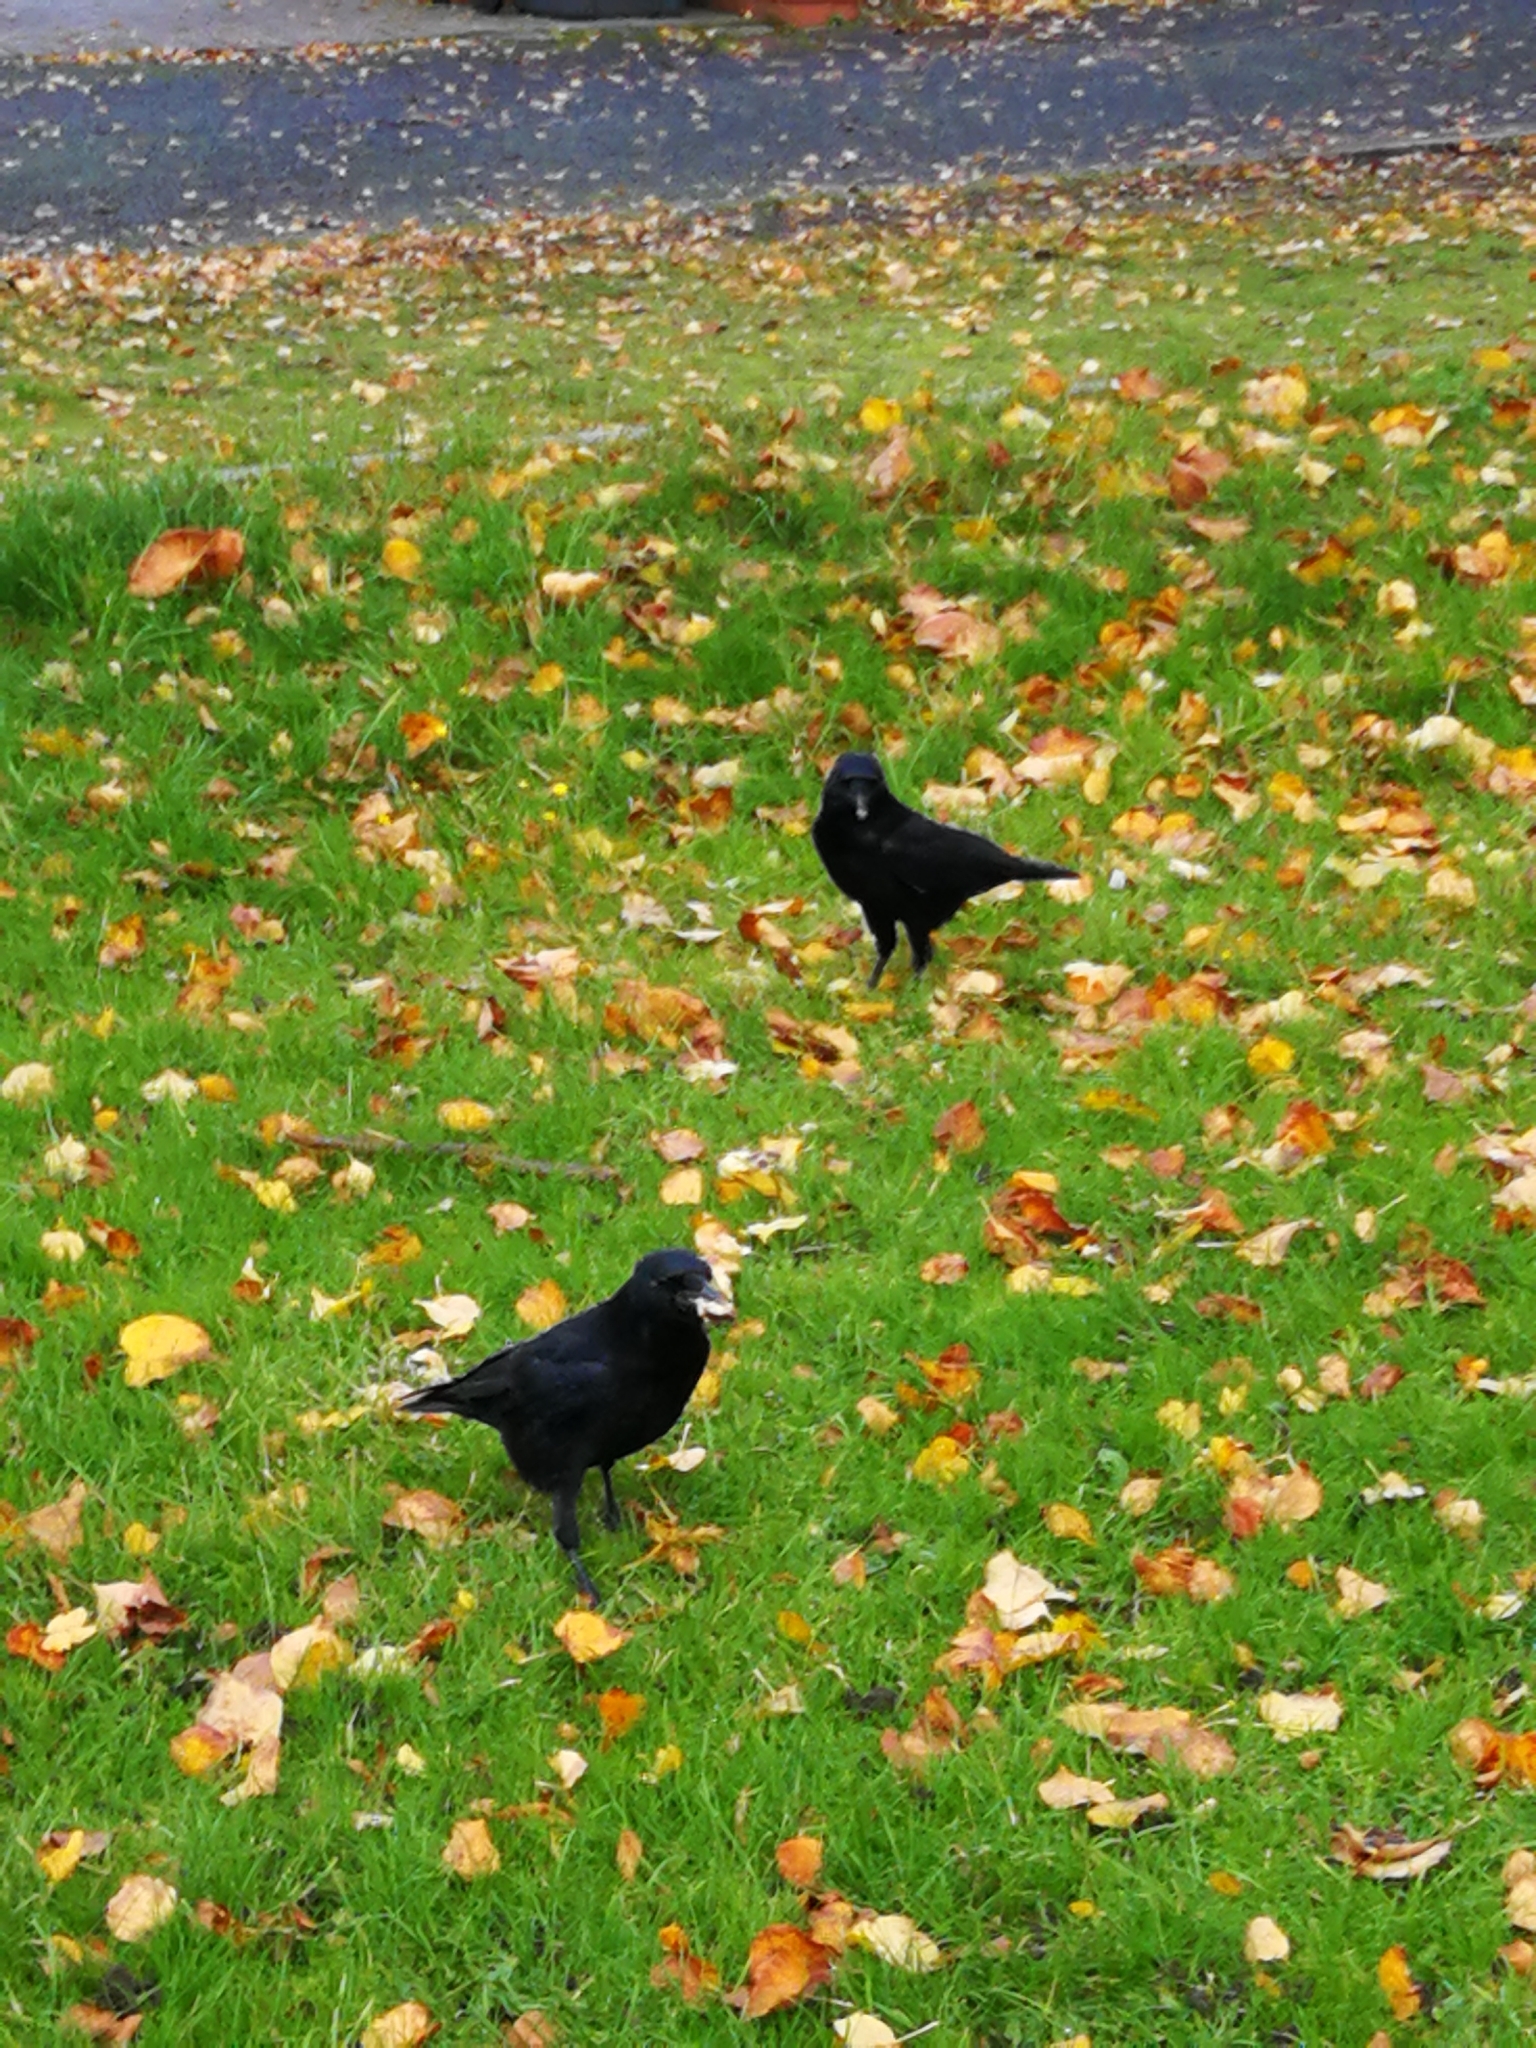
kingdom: Animalia
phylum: Chordata
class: Aves
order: Passeriformes
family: Corvidae
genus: Corvus
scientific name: Corvus corone
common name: Carrion crow
